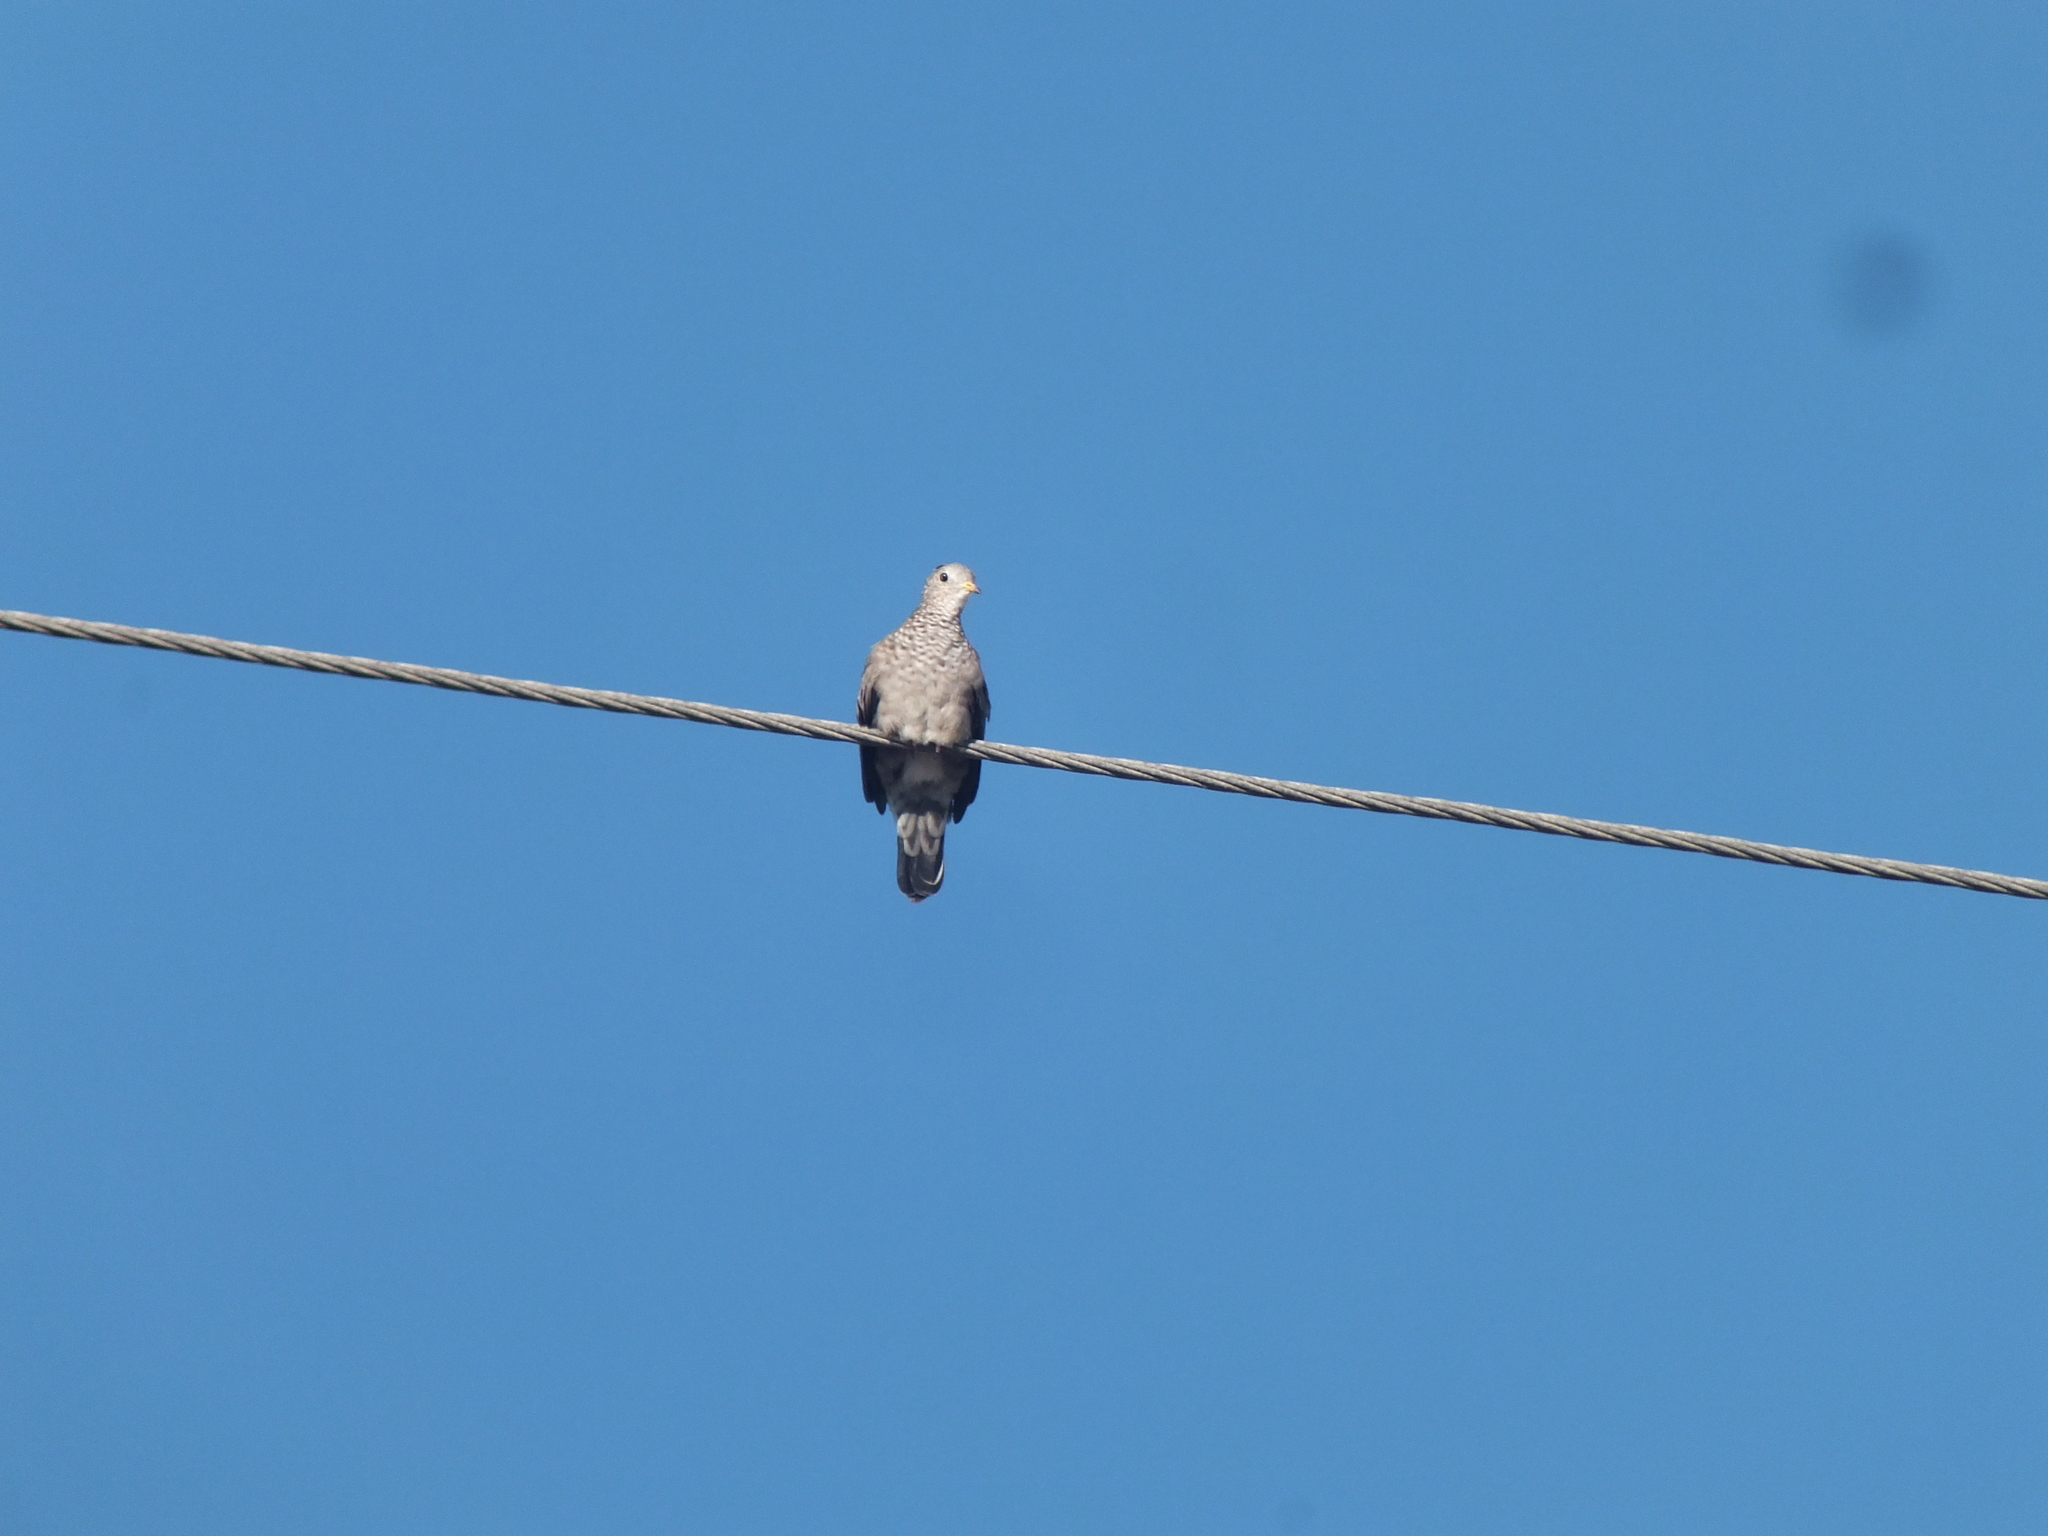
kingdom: Animalia
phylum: Chordata
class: Aves
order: Columbiformes
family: Columbidae
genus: Columbina
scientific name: Columbina passerina
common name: Common ground-dove
